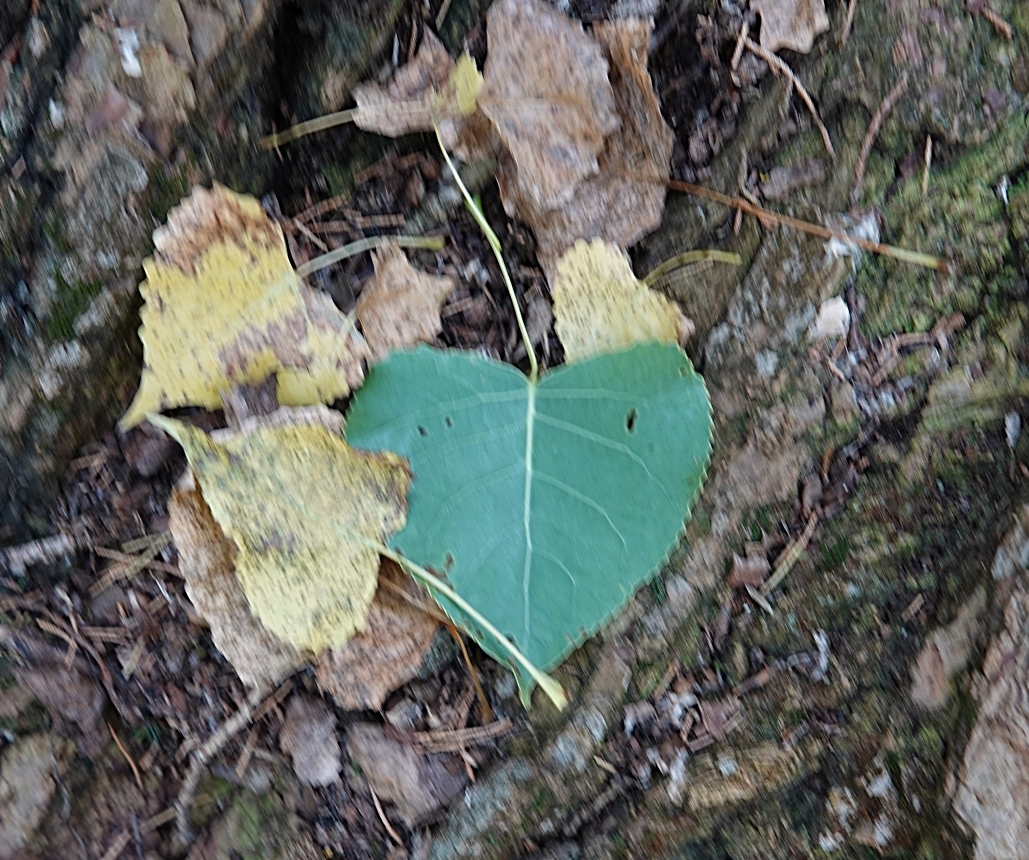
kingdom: Plantae
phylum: Tracheophyta
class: Magnoliopsida
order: Malpighiales
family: Salicaceae
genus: Populus
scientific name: Populus deltoides
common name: Eastern cottonwood
